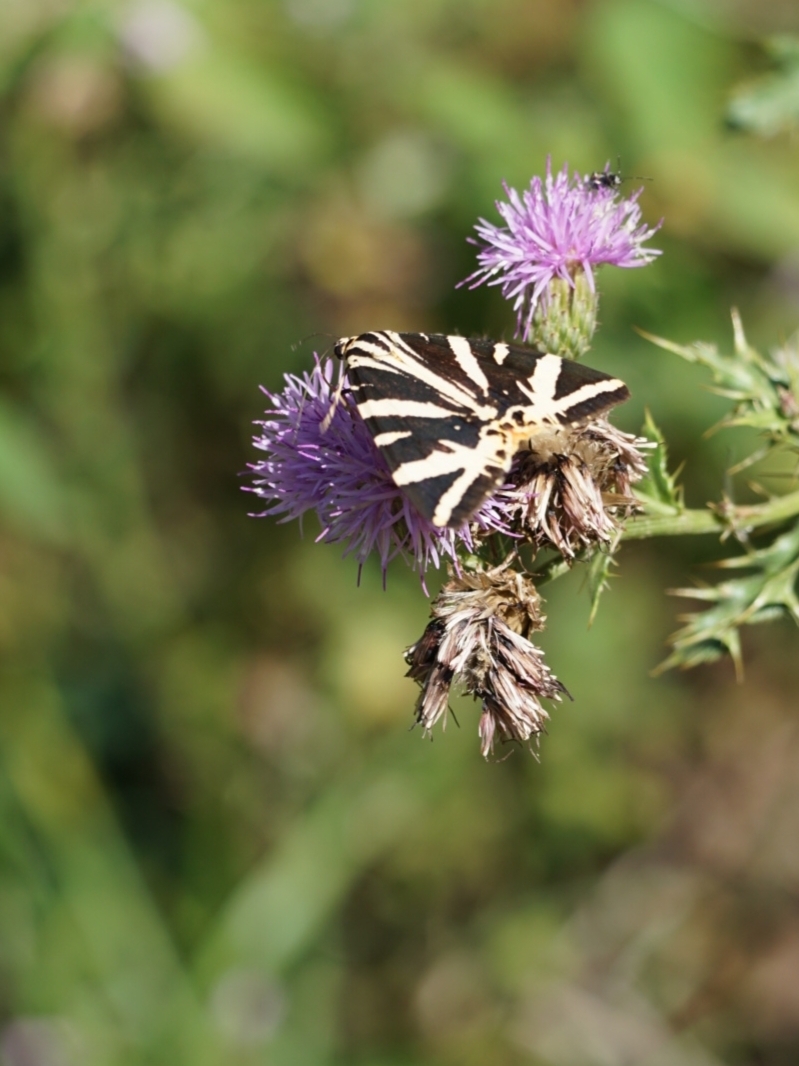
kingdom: Animalia
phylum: Arthropoda
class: Insecta
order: Lepidoptera
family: Erebidae
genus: Euplagia
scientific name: Euplagia quadripunctaria
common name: Jersey tiger
